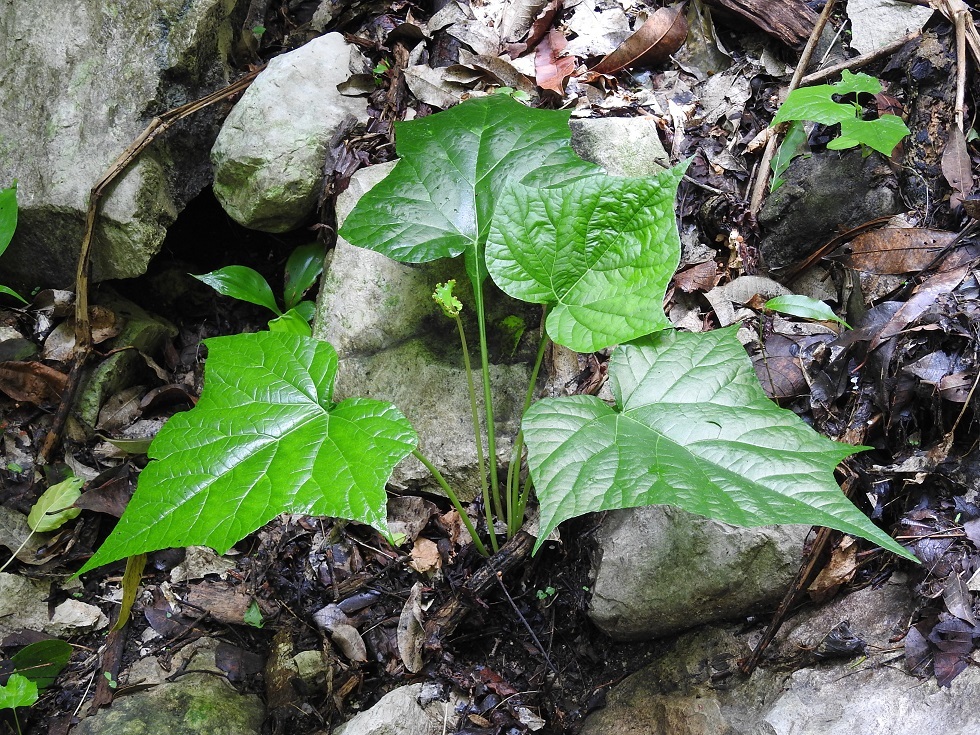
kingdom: Plantae
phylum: Tracheophyta
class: Magnoliopsida
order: Rosales
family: Moraceae
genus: Dorstenia
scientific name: Dorstenia contrajerva
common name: Tusilla
